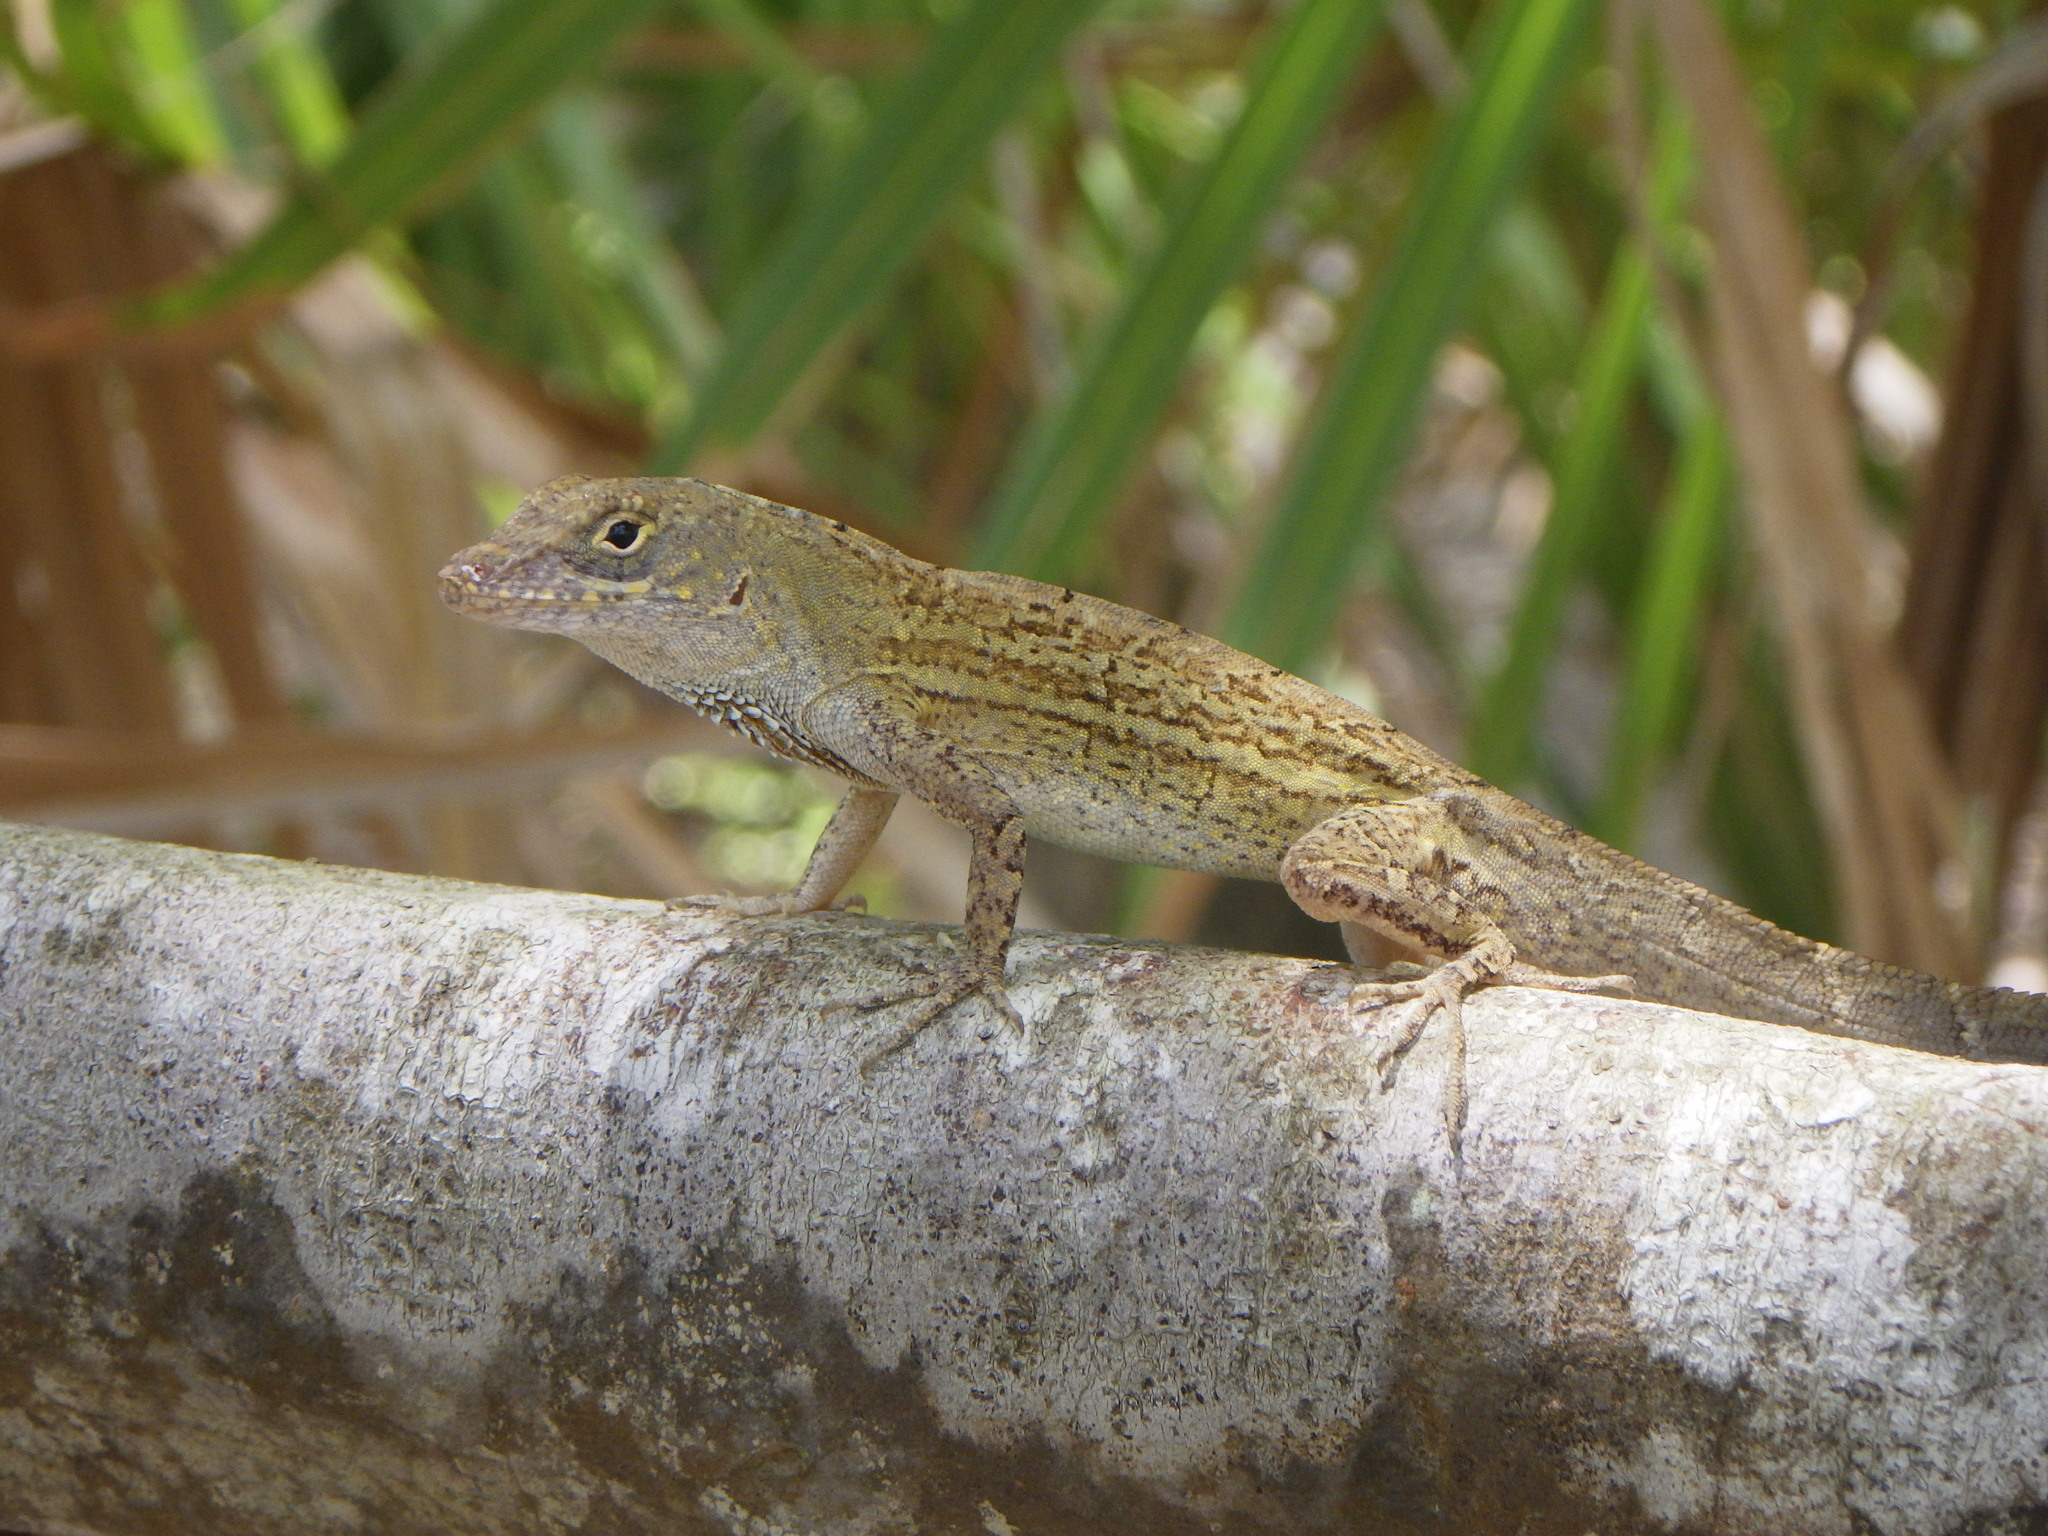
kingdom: Animalia
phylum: Chordata
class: Squamata
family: Dactyloidae
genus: Anolis
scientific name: Anolis sagrei
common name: Brown anole
